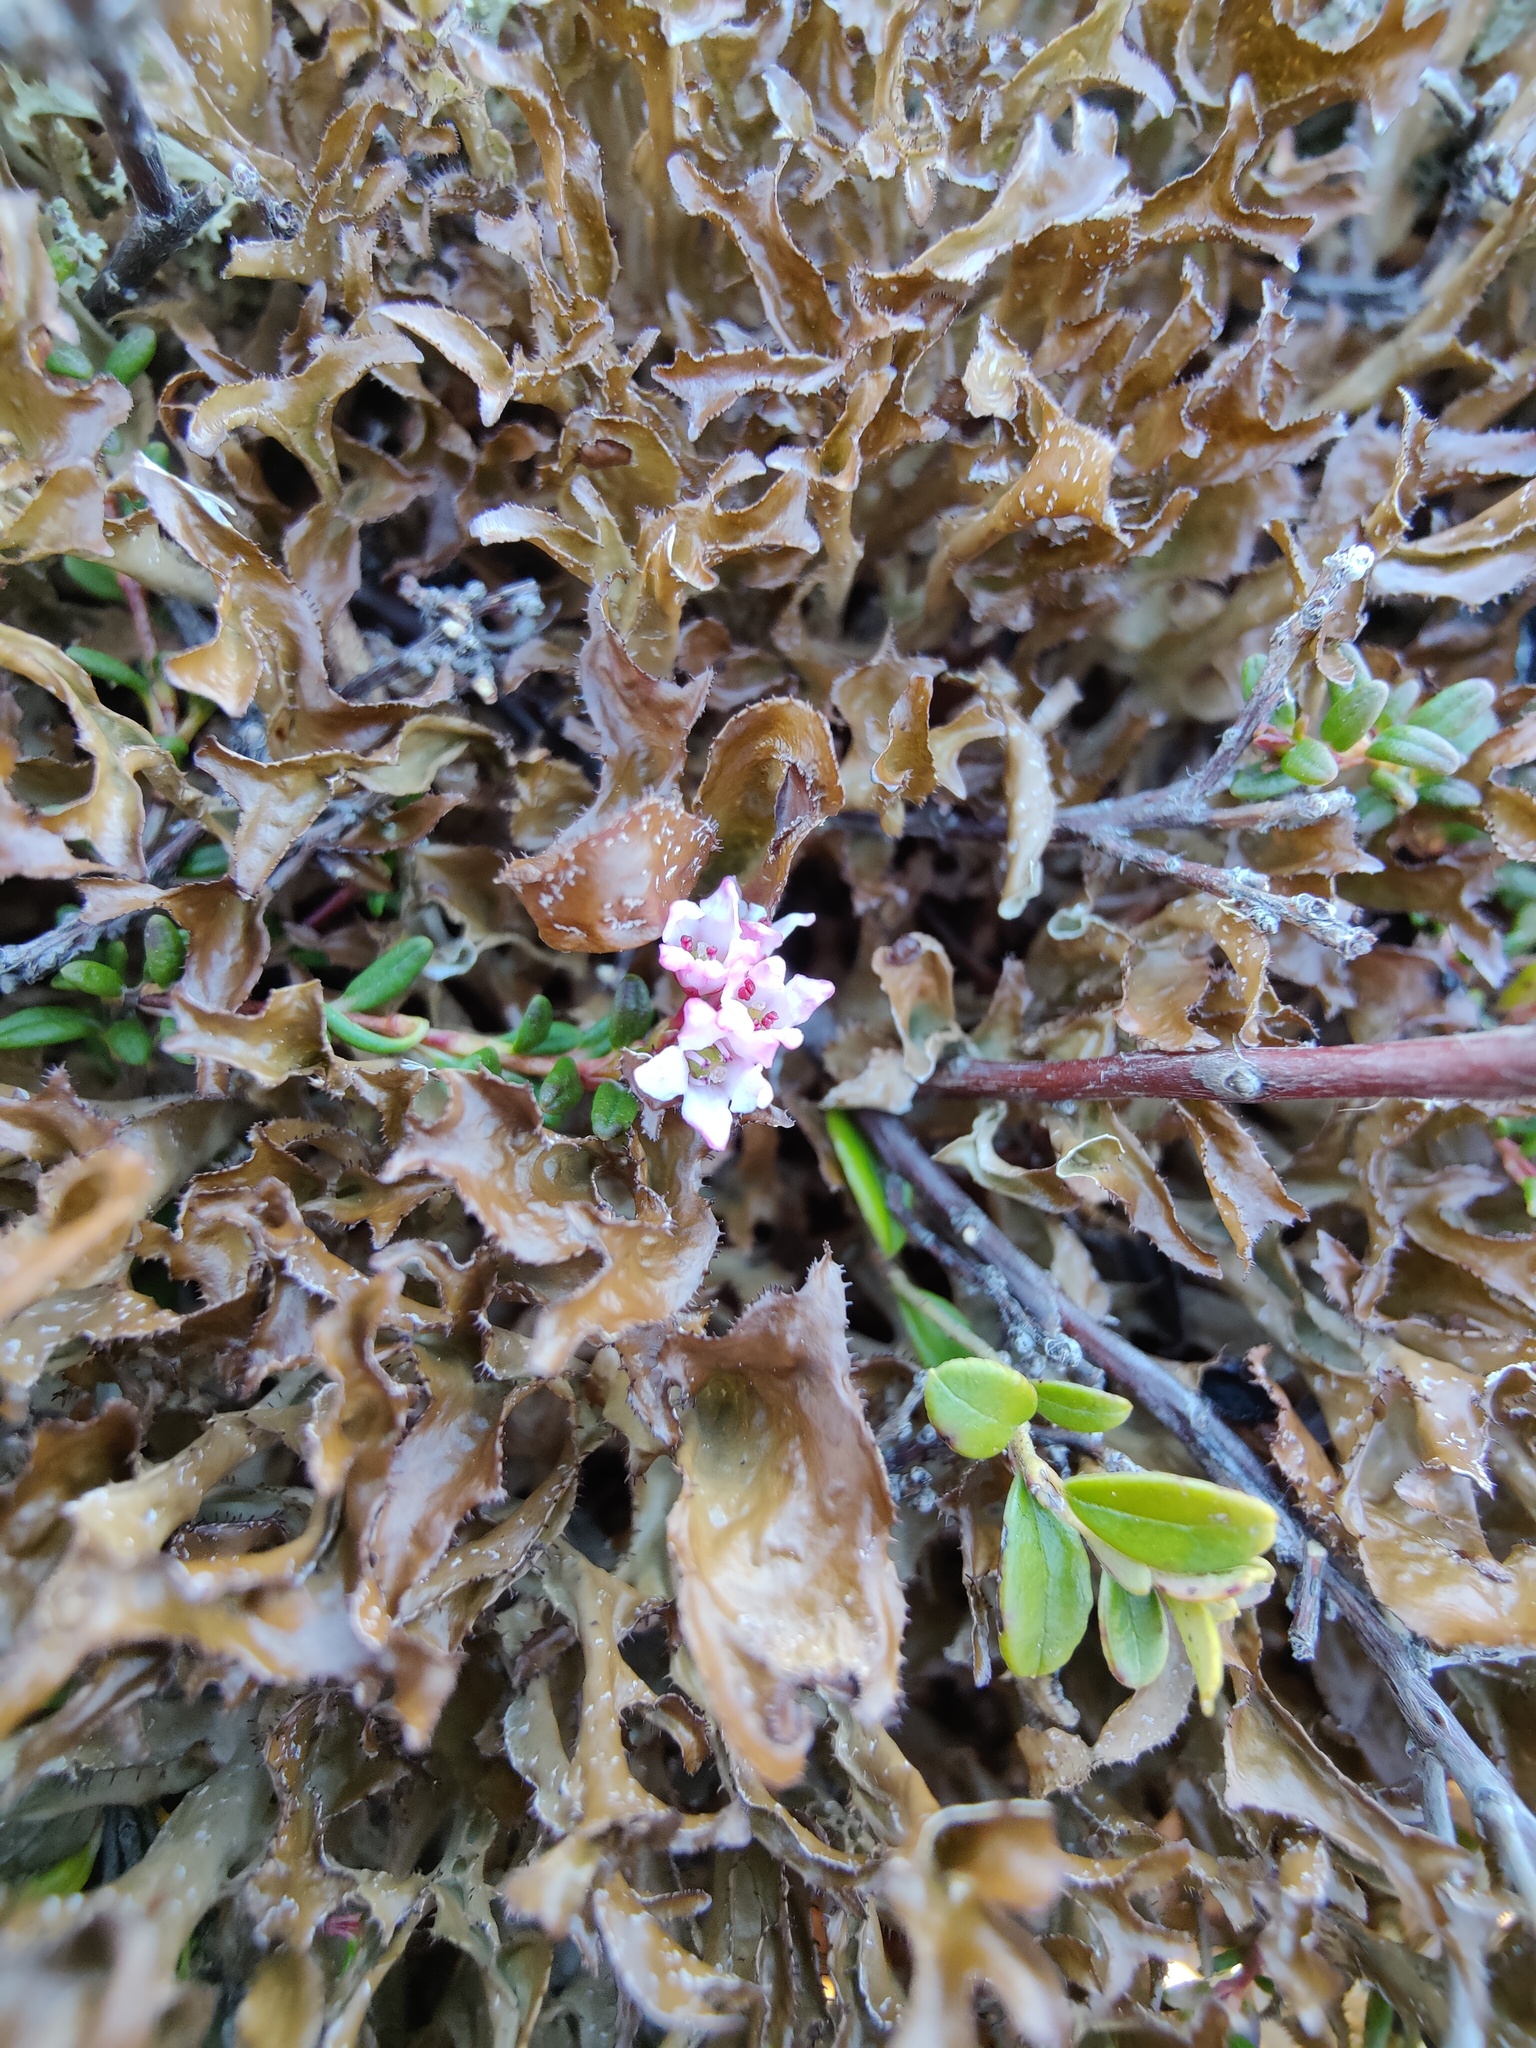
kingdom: Plantae
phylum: Tracheophyta
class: Magnoliopsida
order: Ericales
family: Ericaceae
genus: Kalmia
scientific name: Kalmia procumbens
